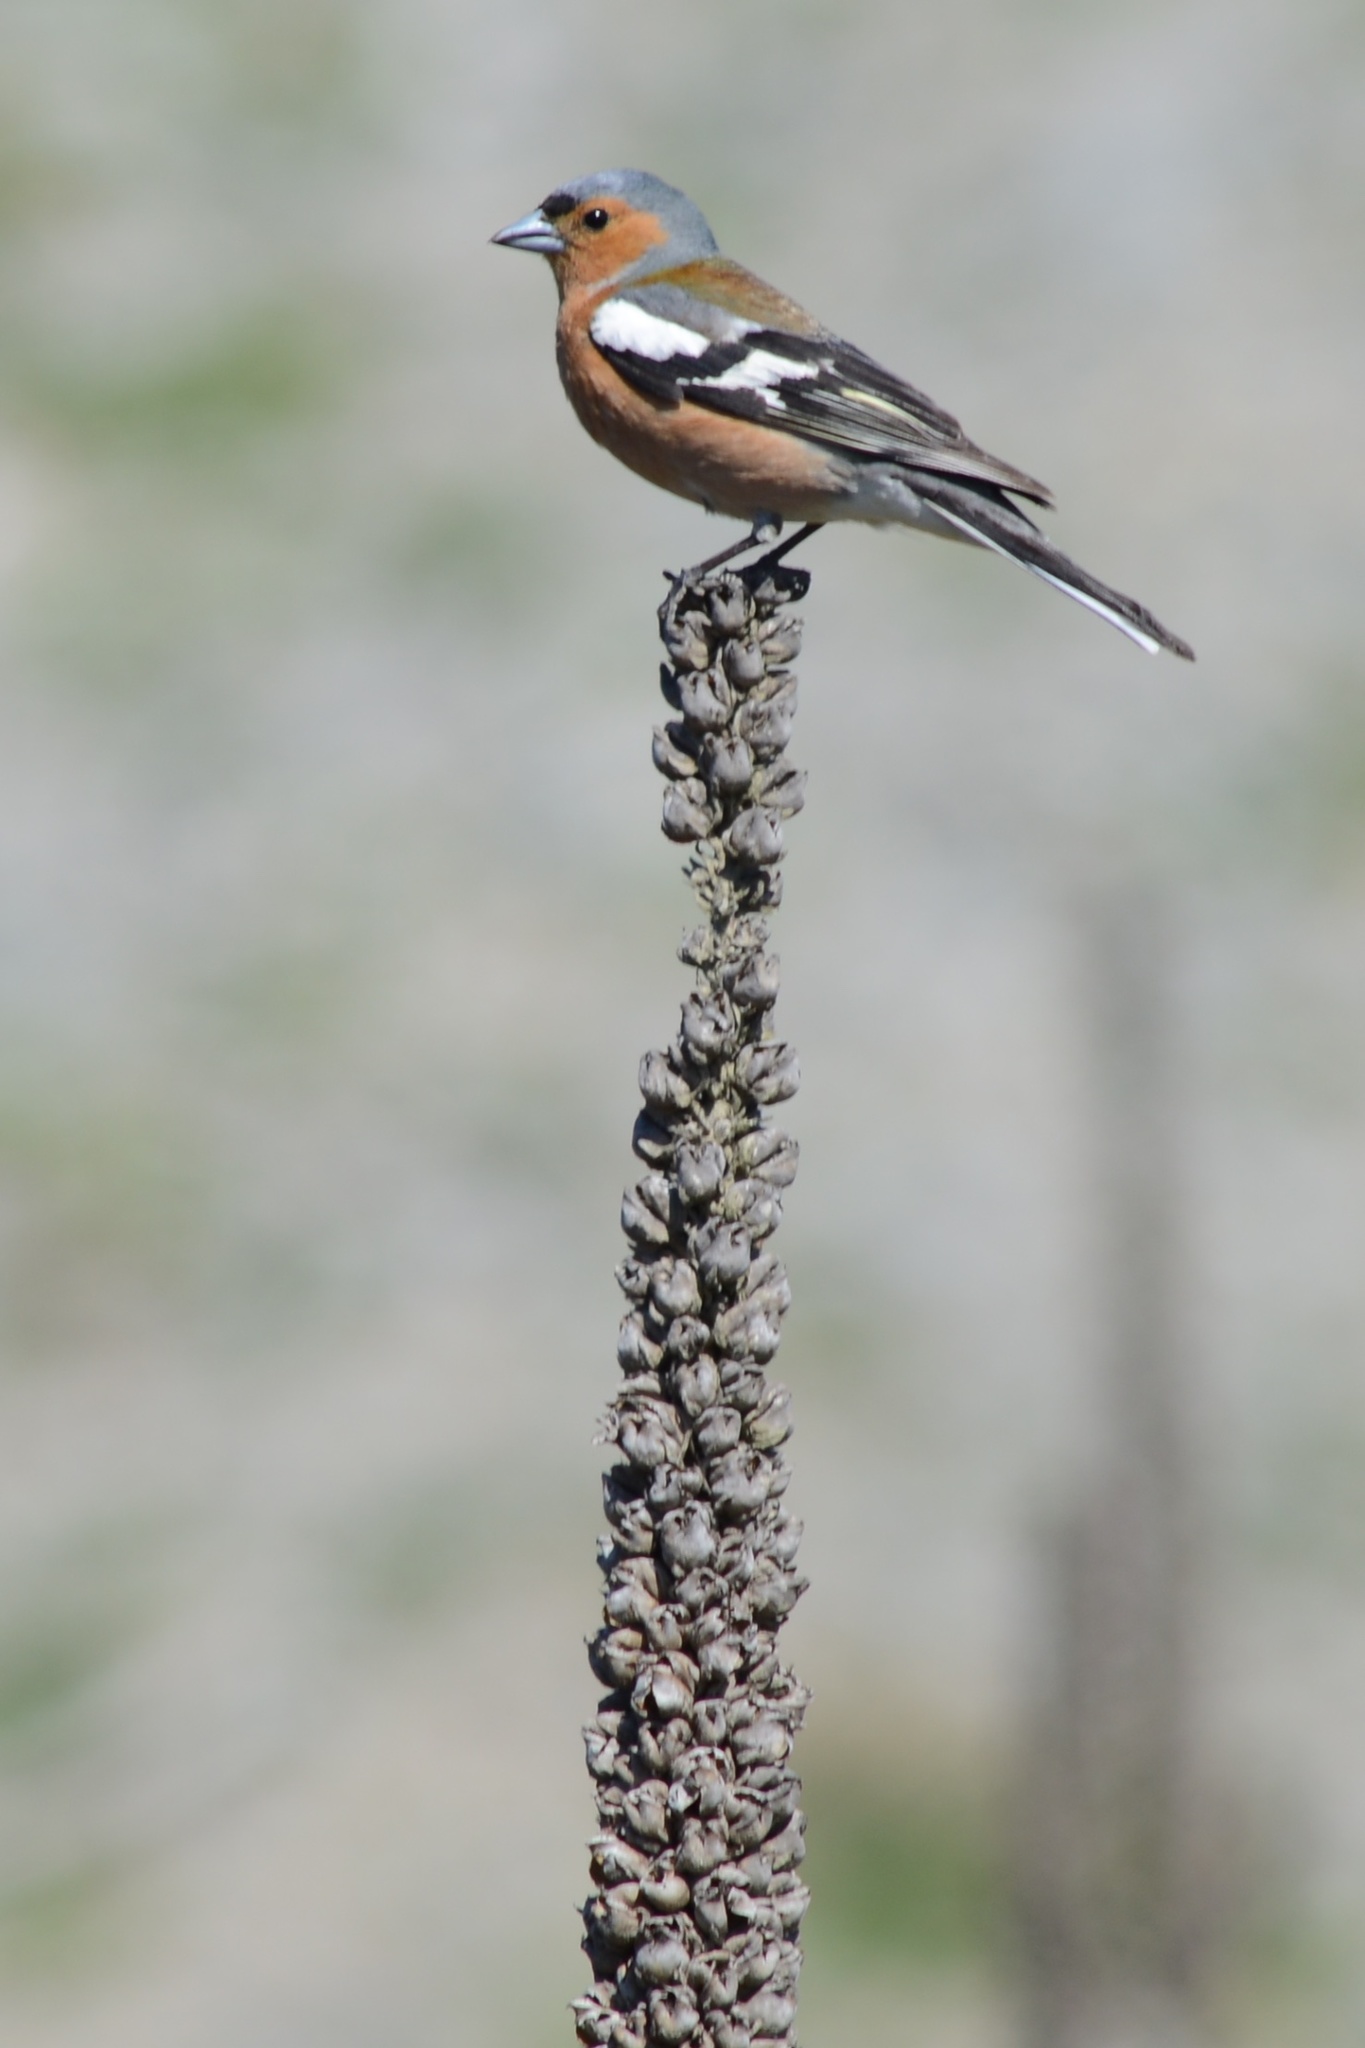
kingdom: Animalia
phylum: Chordata
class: Aves
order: Passeriformes
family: Fringillidae
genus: Fringilla
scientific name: Fringilla coelebs
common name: Common chaffinch
